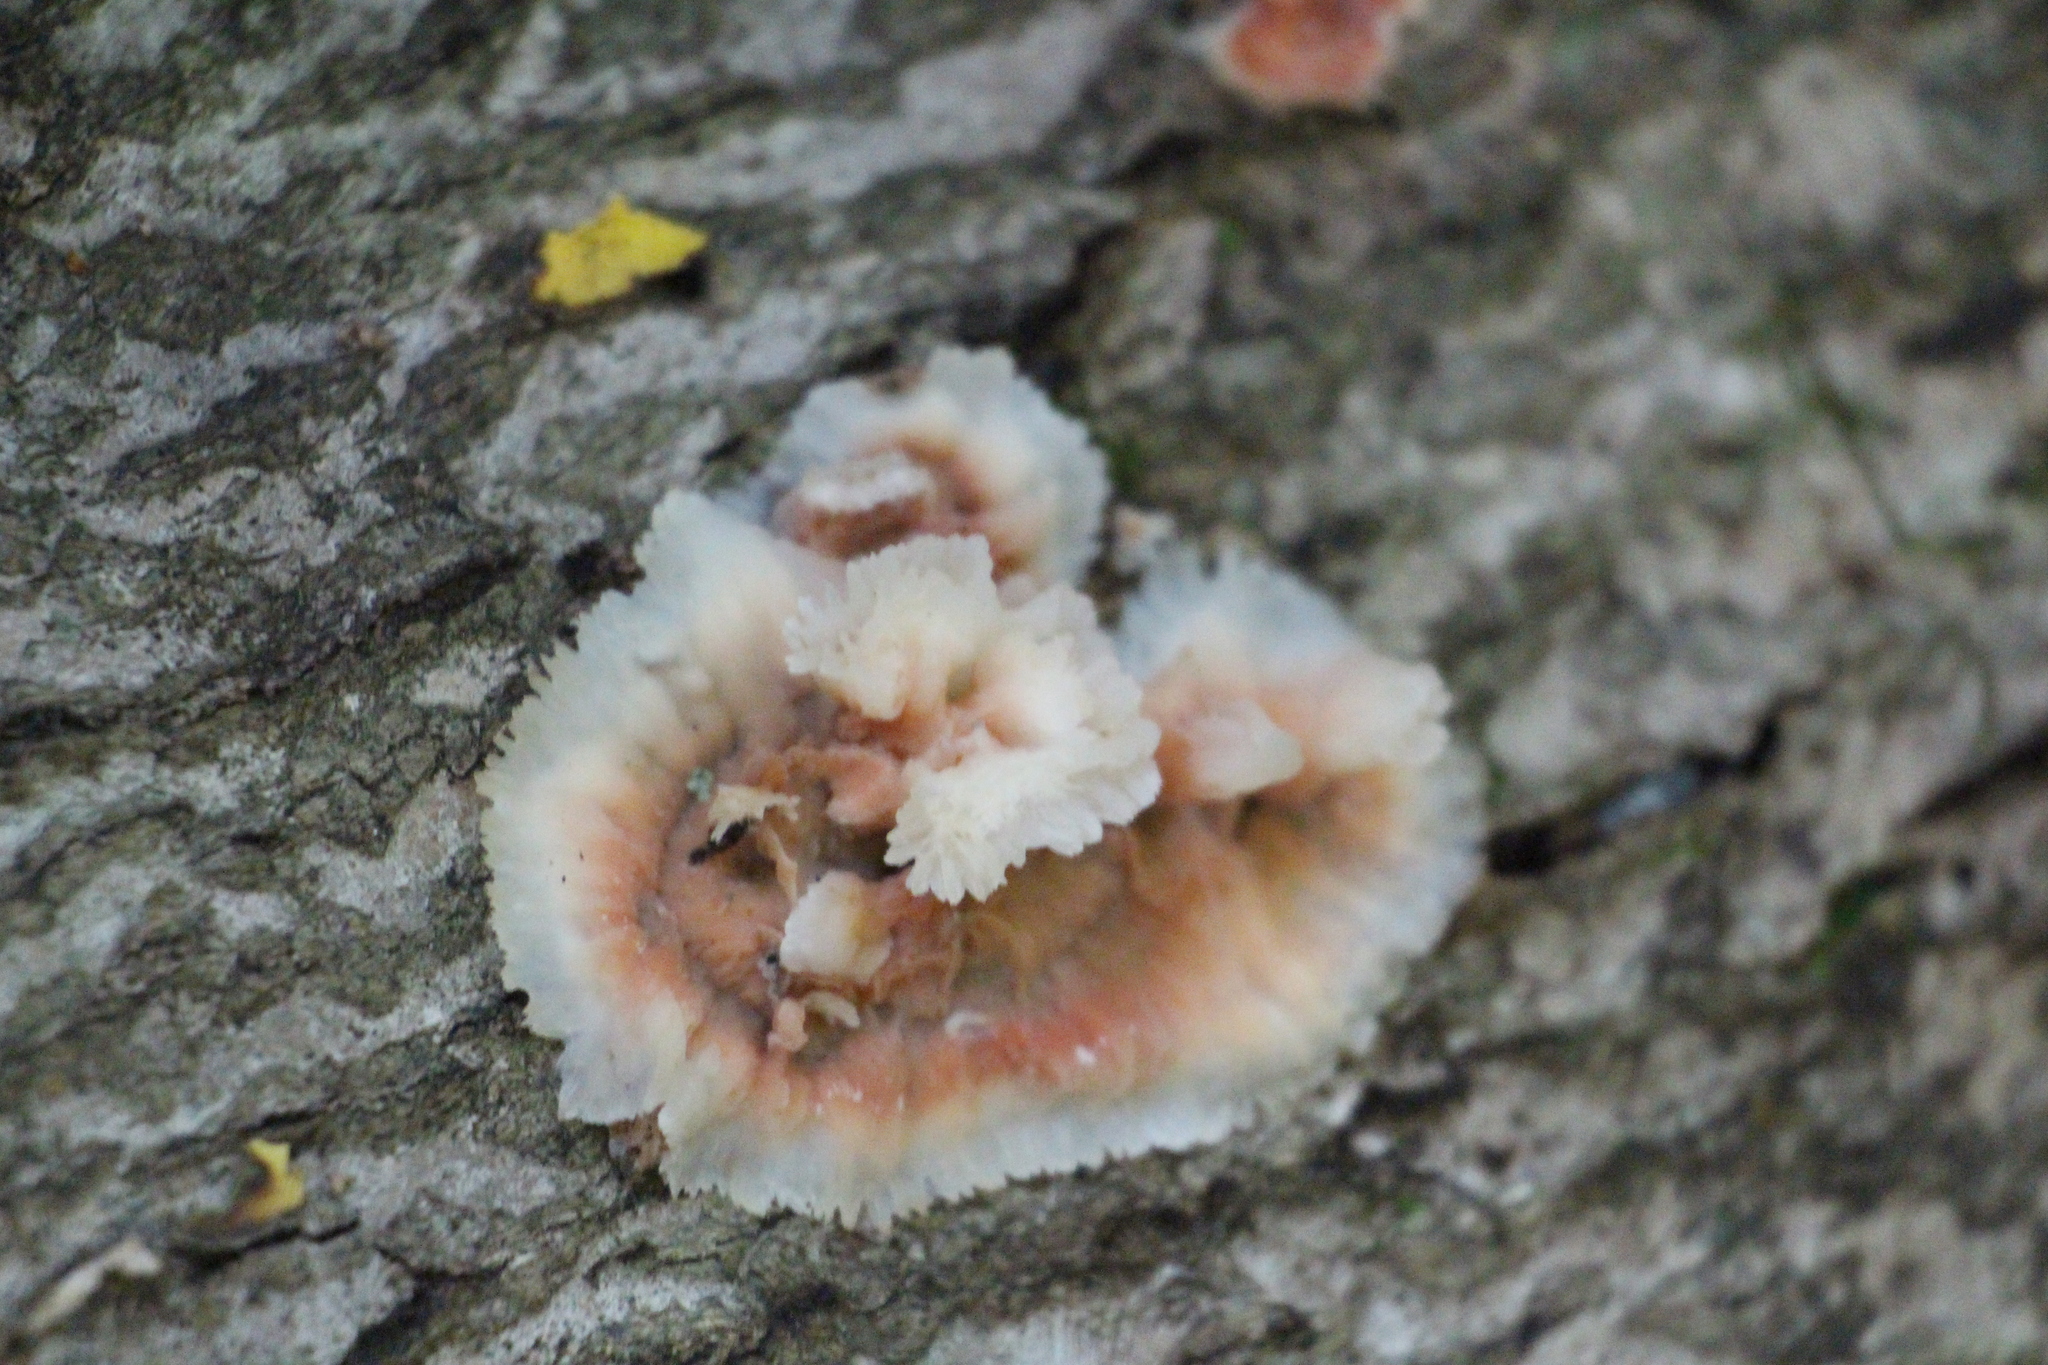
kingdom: Fungi
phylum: Basidiomycota
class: Agaricomycetes
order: Polyporales
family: Meruliaceae
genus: Phlebia
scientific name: Phlebia tremellosa
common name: Jelly rot
